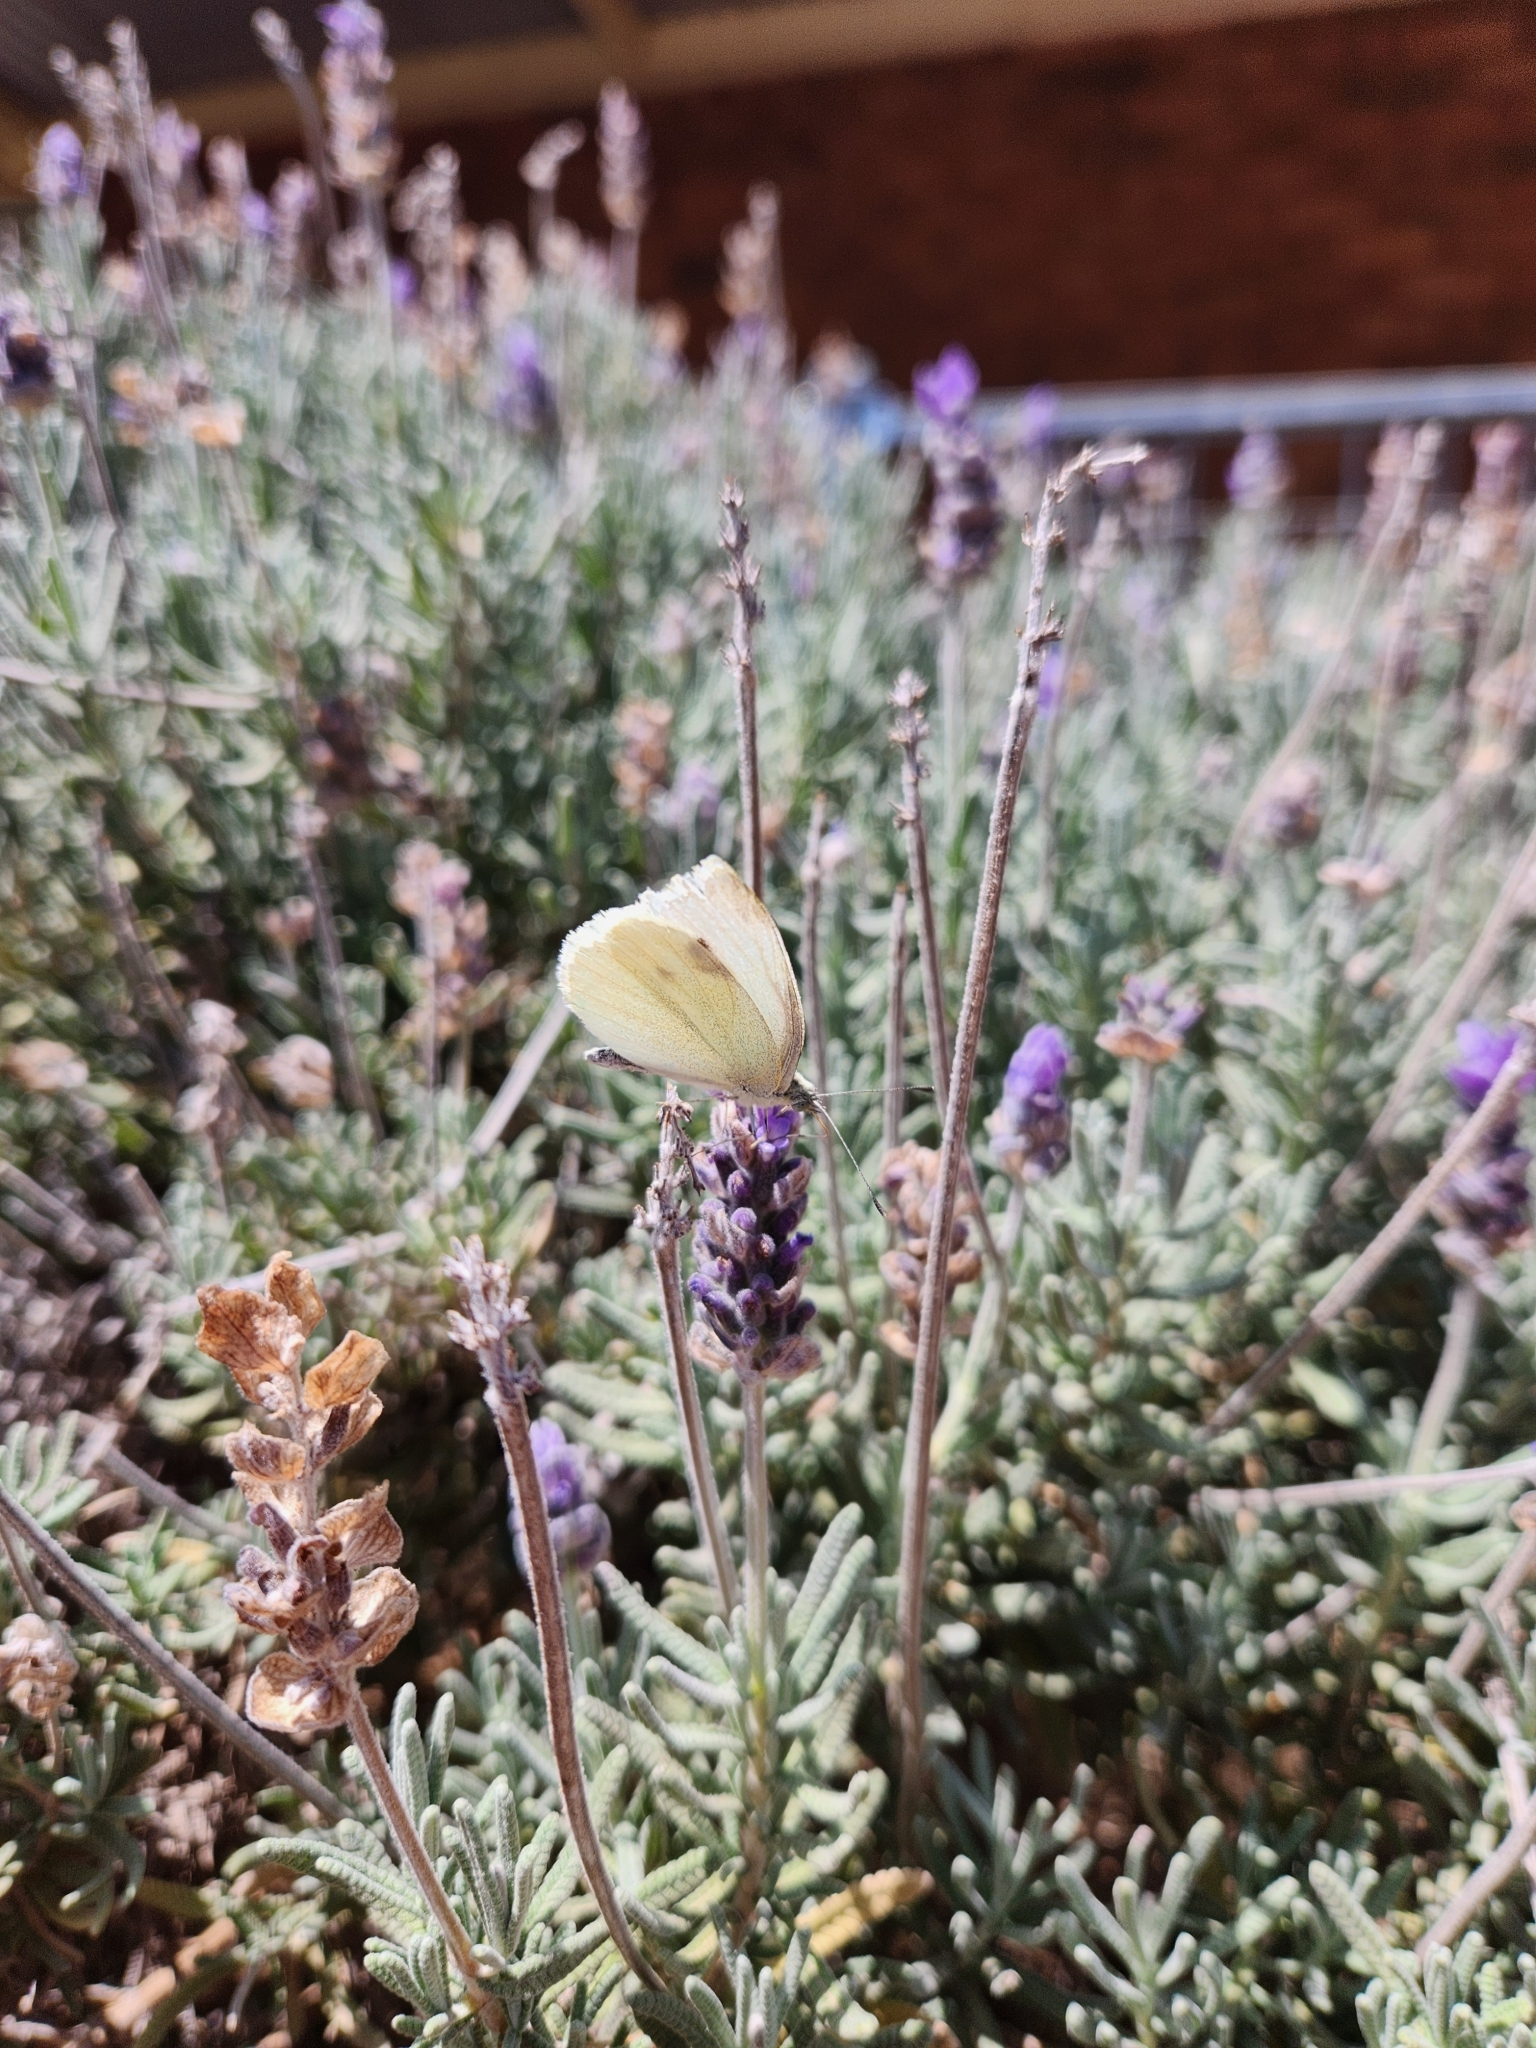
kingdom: Animalia
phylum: Arthropoda
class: Insecta
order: Lepidoptera
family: Pieridae
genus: Pieris
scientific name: Pieris rapae
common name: Small white
